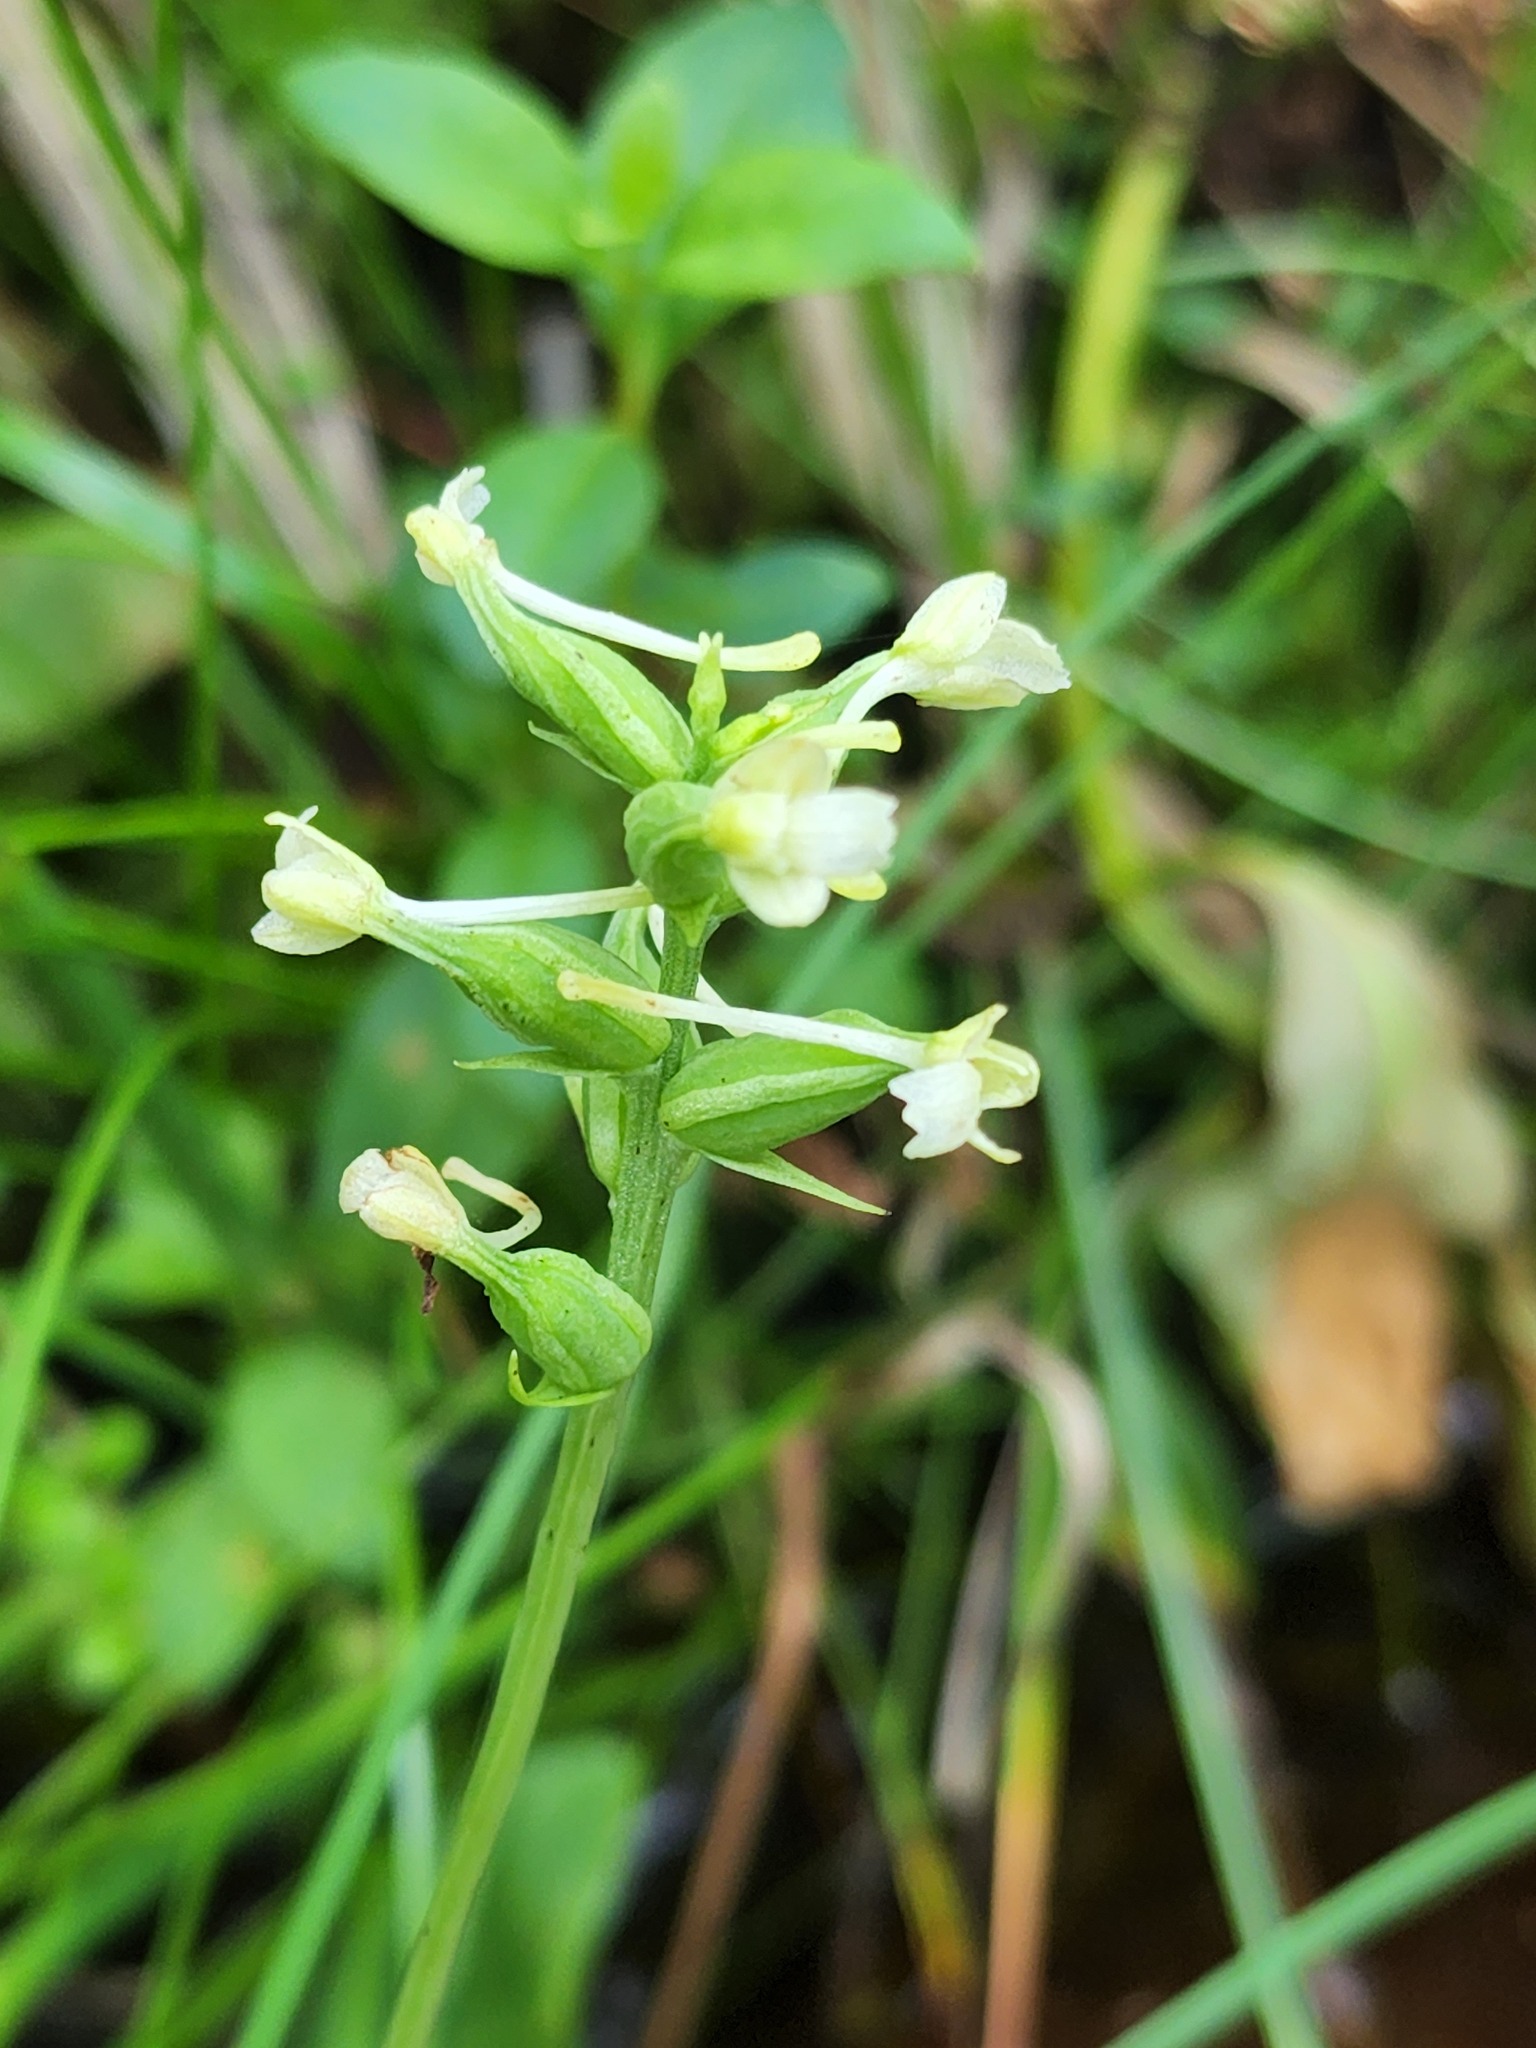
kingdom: Plantae
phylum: Tracheophyta
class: Liliopsida
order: Asparagales
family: Orchidaceae
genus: Platanthera
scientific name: Platanthera clavellata
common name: Club-spur orchid
